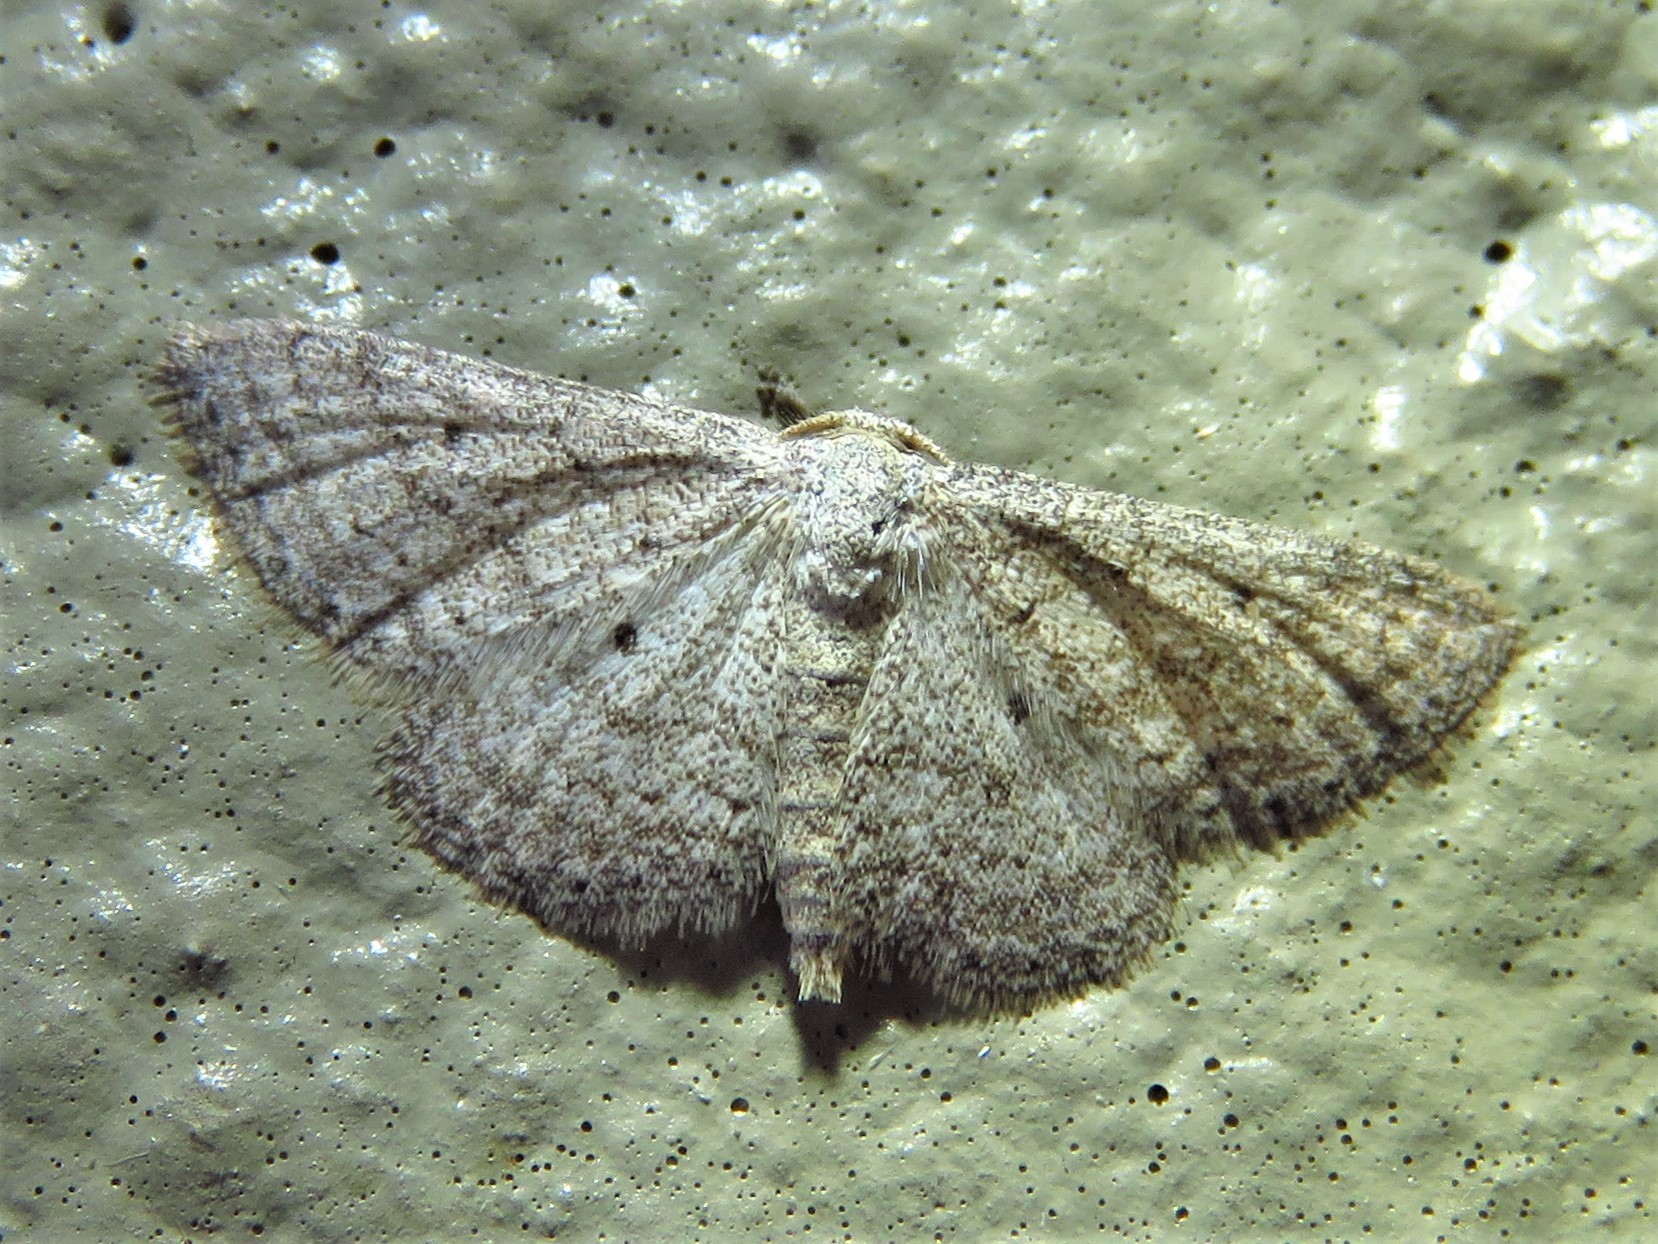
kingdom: Animalia
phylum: Arthropoda
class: Insecta
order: Lepidoptera
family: Geometridae
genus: Lobocleta
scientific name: Lobocleta ossularia
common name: Drab brown wave
